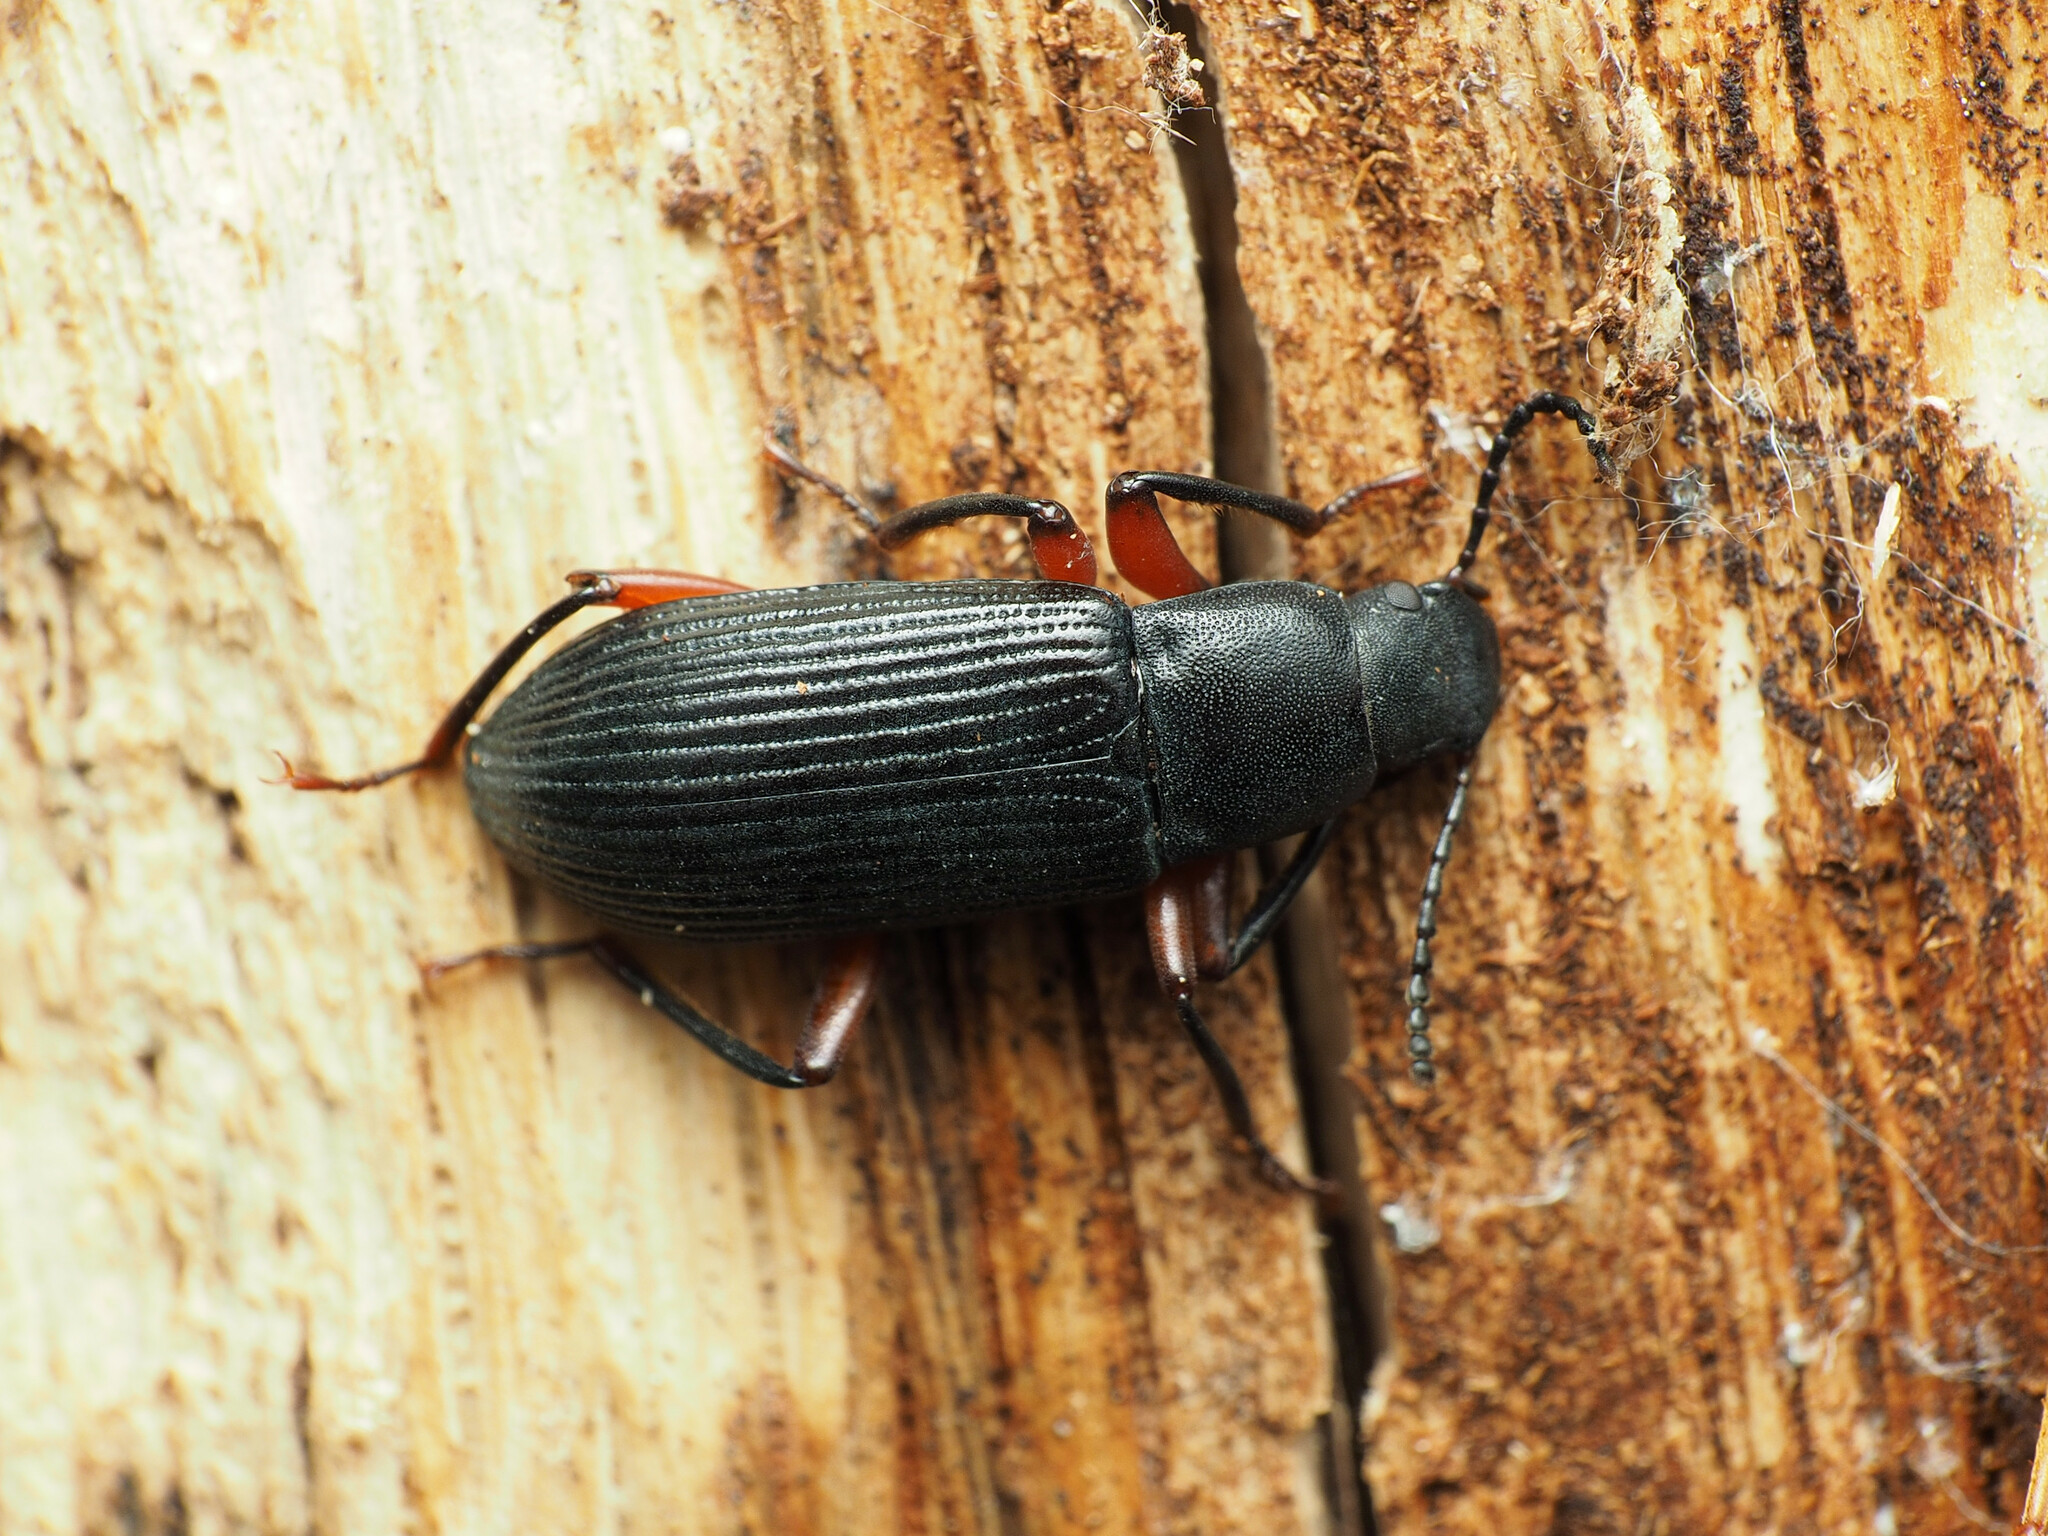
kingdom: Animalia
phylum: Arthropoda
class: Insecta
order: Coleoptera
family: Tenebrionidae
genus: Xylopinus
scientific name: Xylopinus saperdoides
